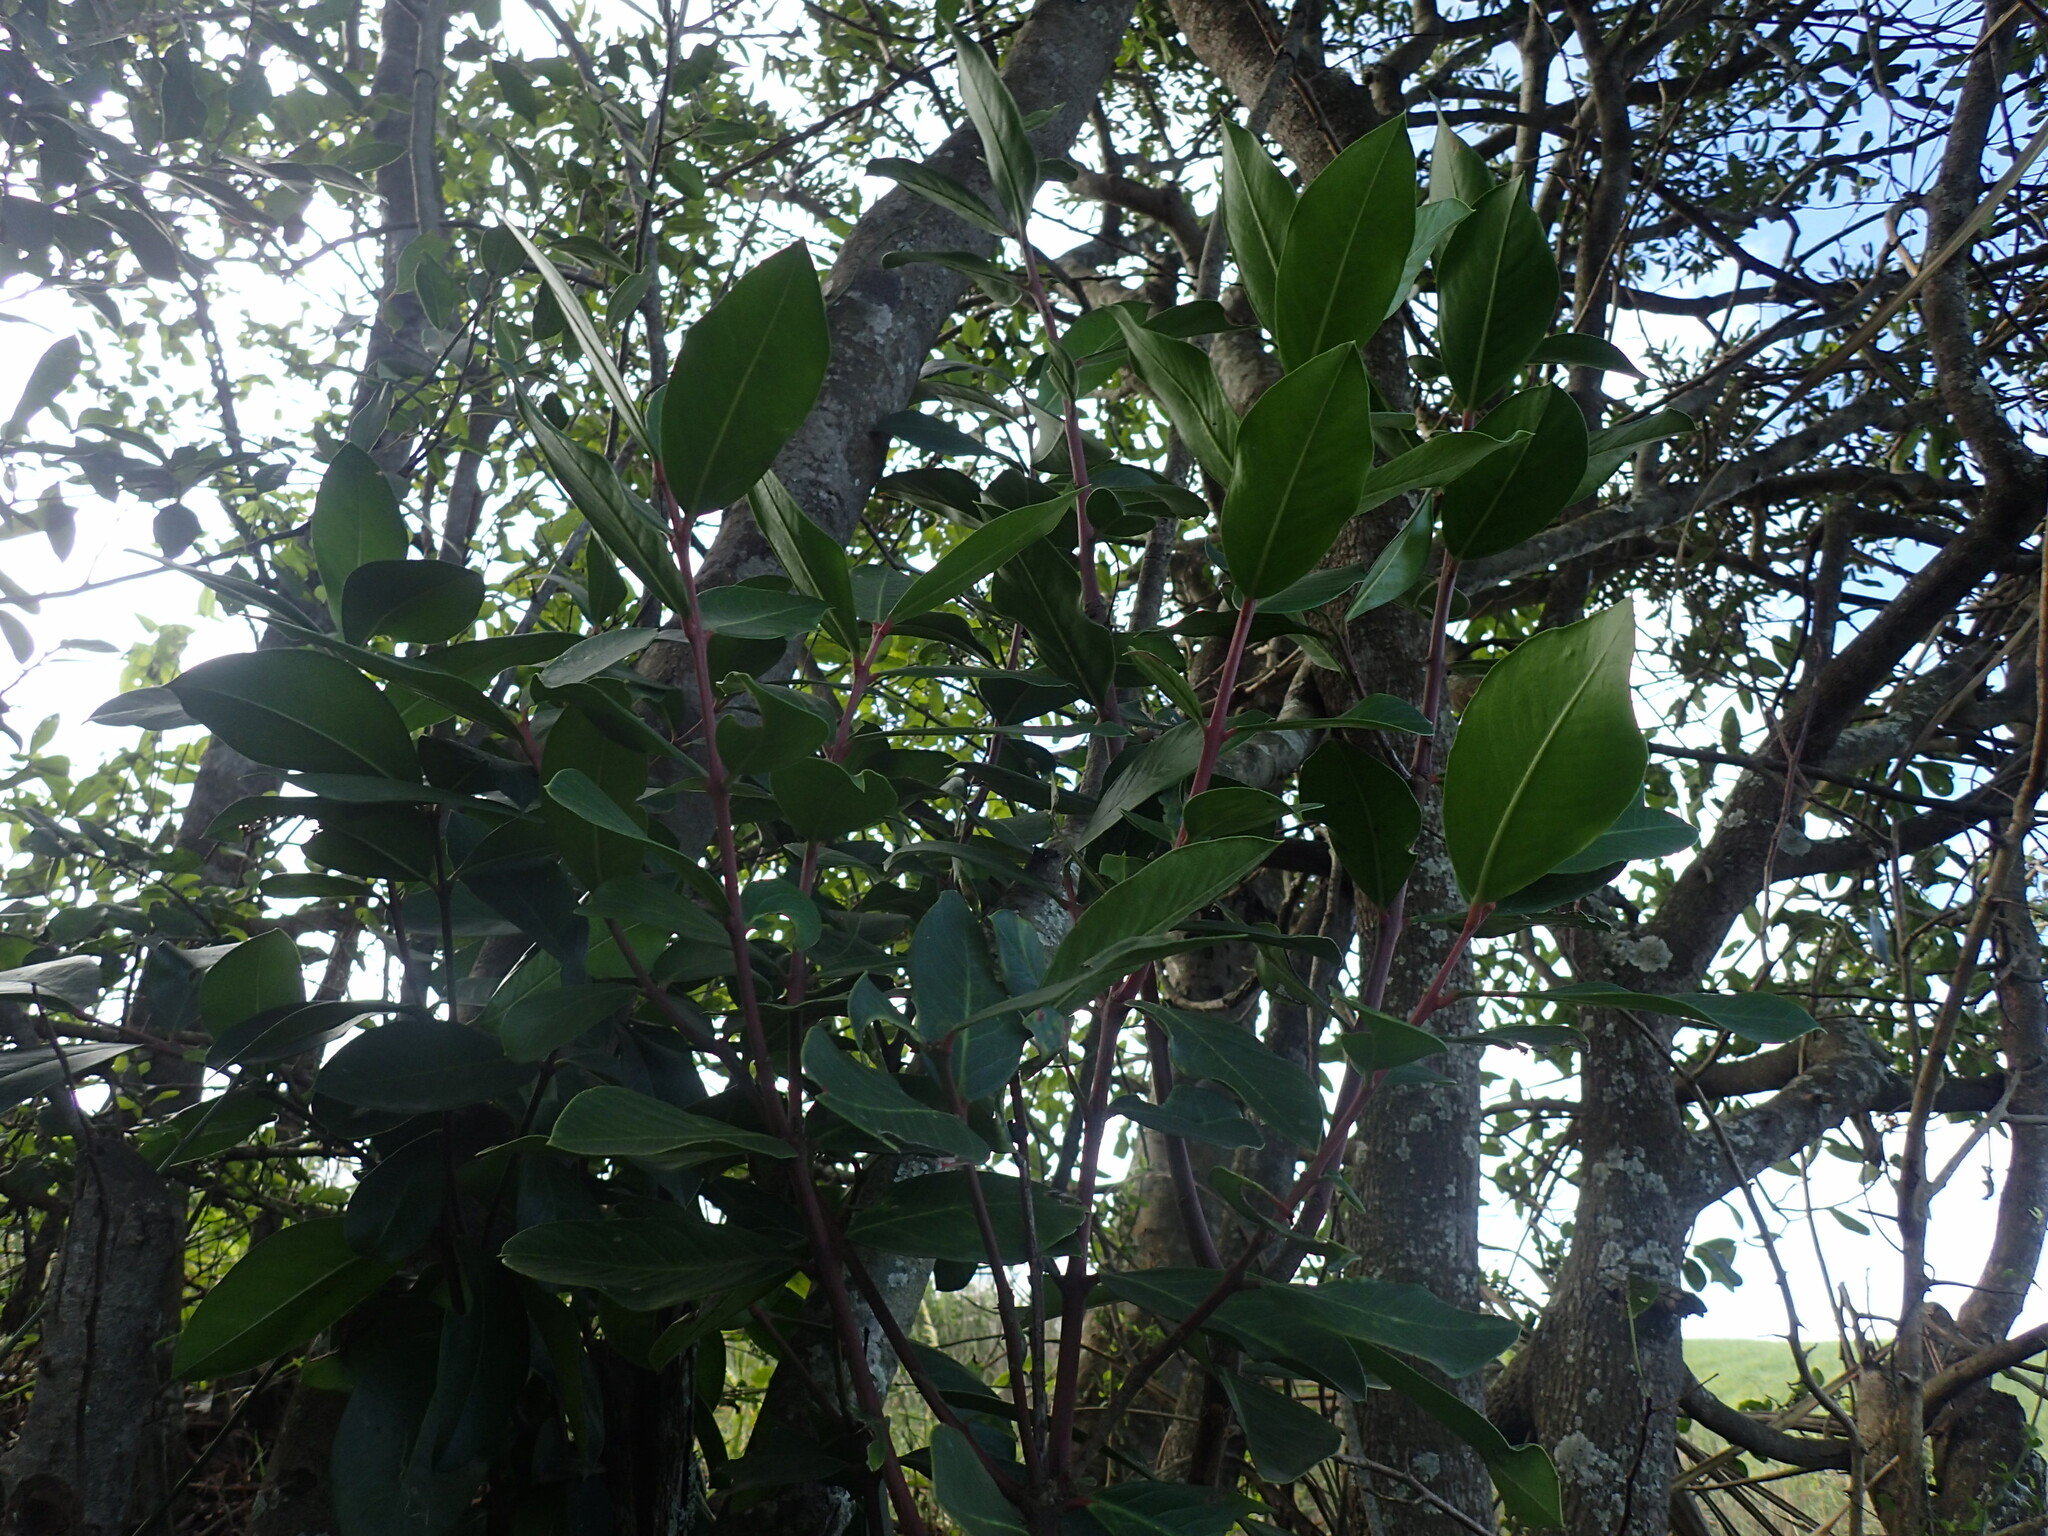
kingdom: Plantae
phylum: Tracheophyta
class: Magnoliopsida
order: Gentianales
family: Apocynaceae
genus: Acokanthera
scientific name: Acokanthera oppositifolia
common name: Bushman's-poison
